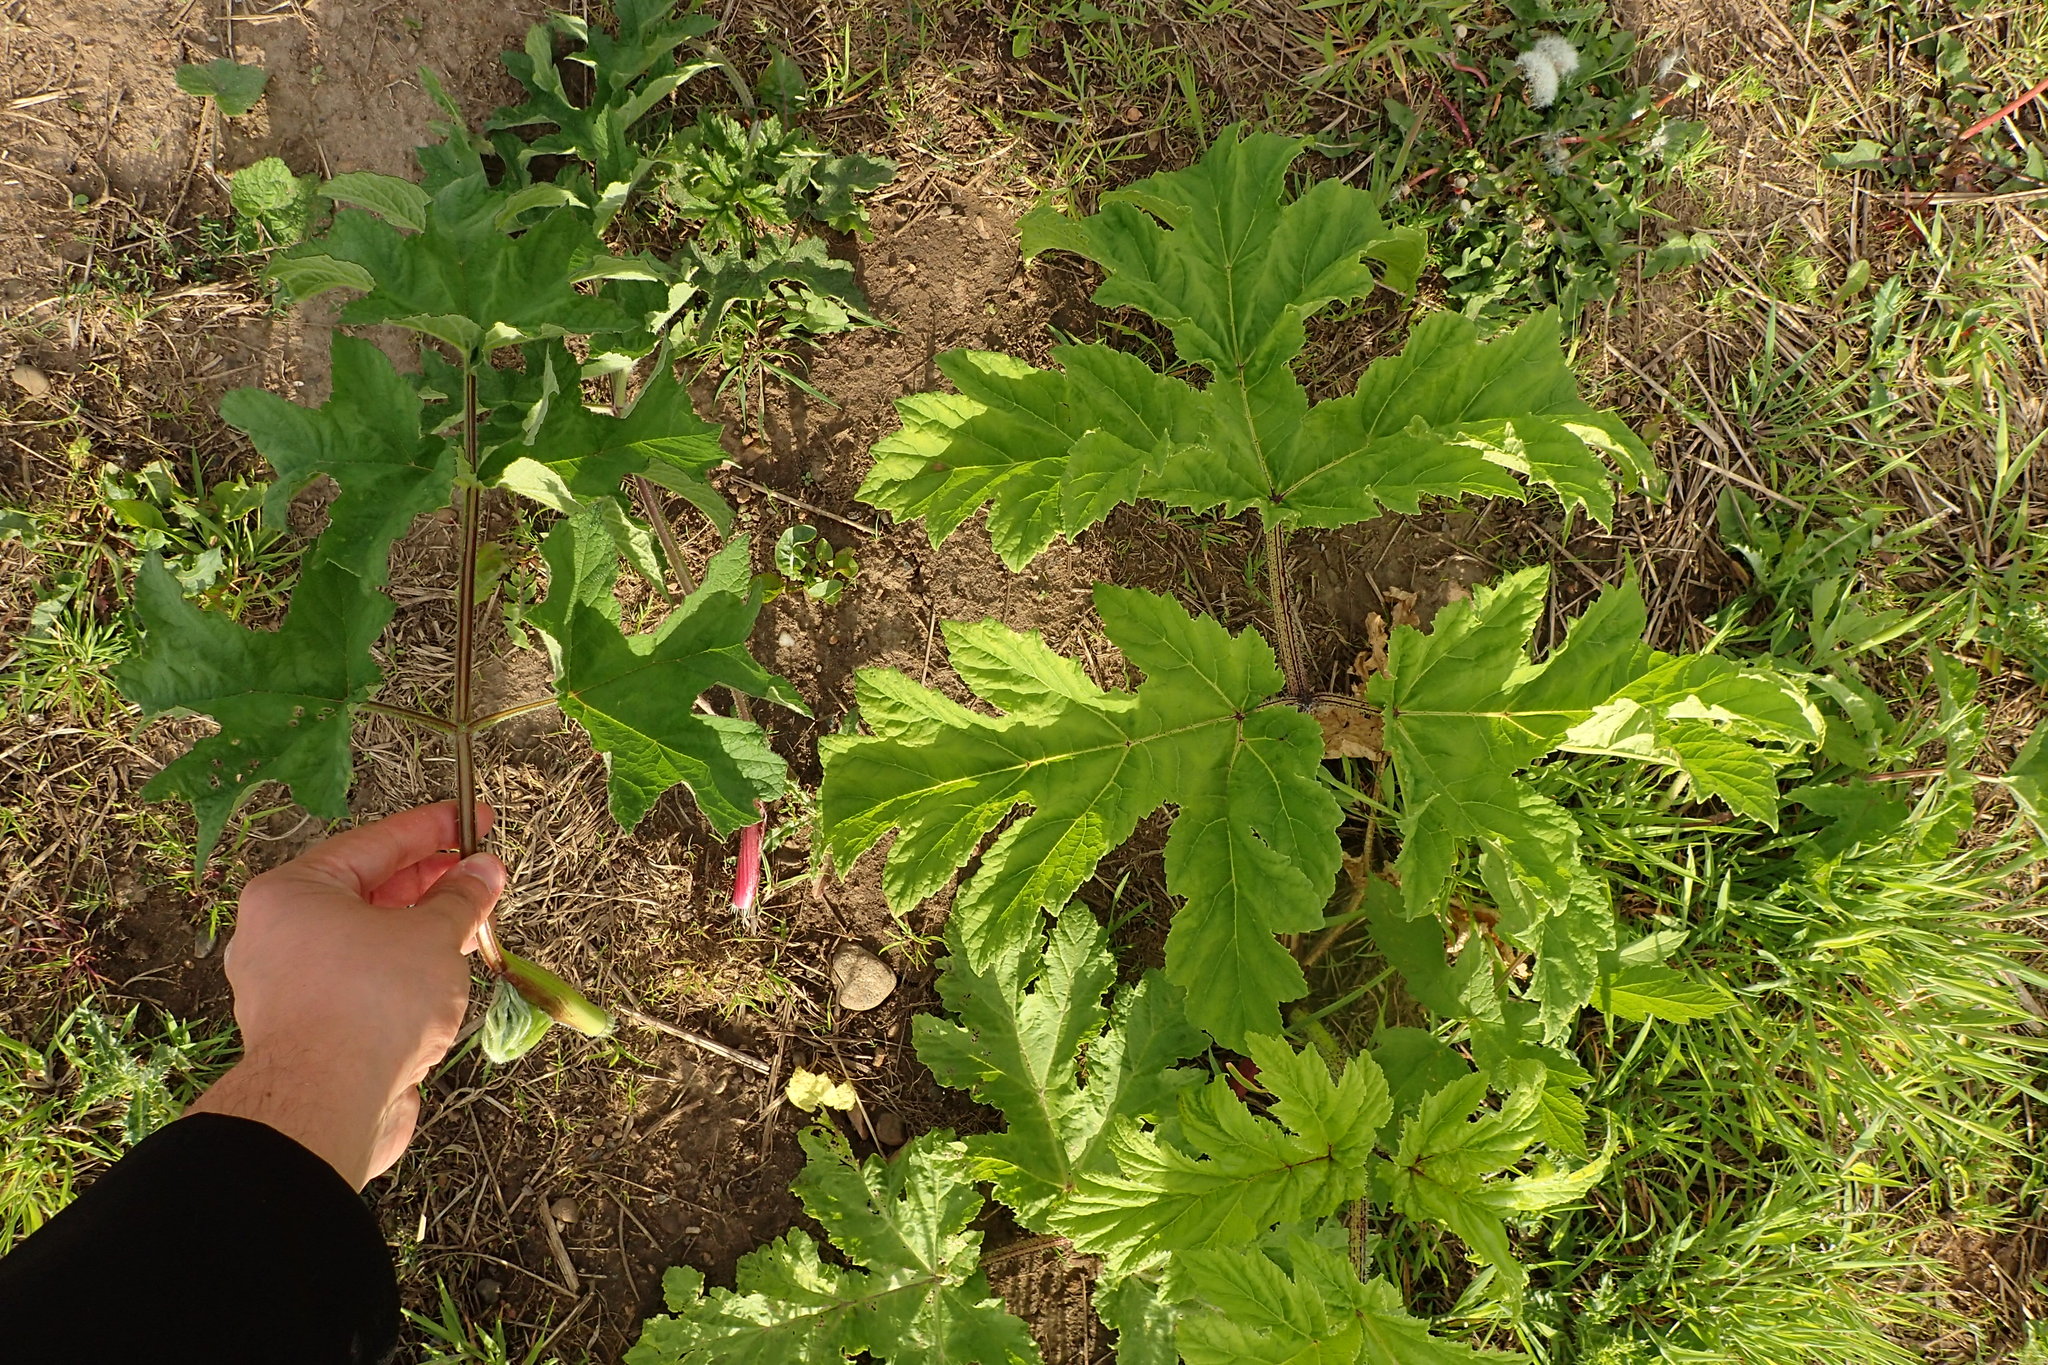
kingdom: Plantae
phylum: Tracheophyta
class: Magnoliopsida
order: Apiales
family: Apiaceae
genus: Heracleum
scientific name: Heracleum mantegazzianum
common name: Giant hogweed
